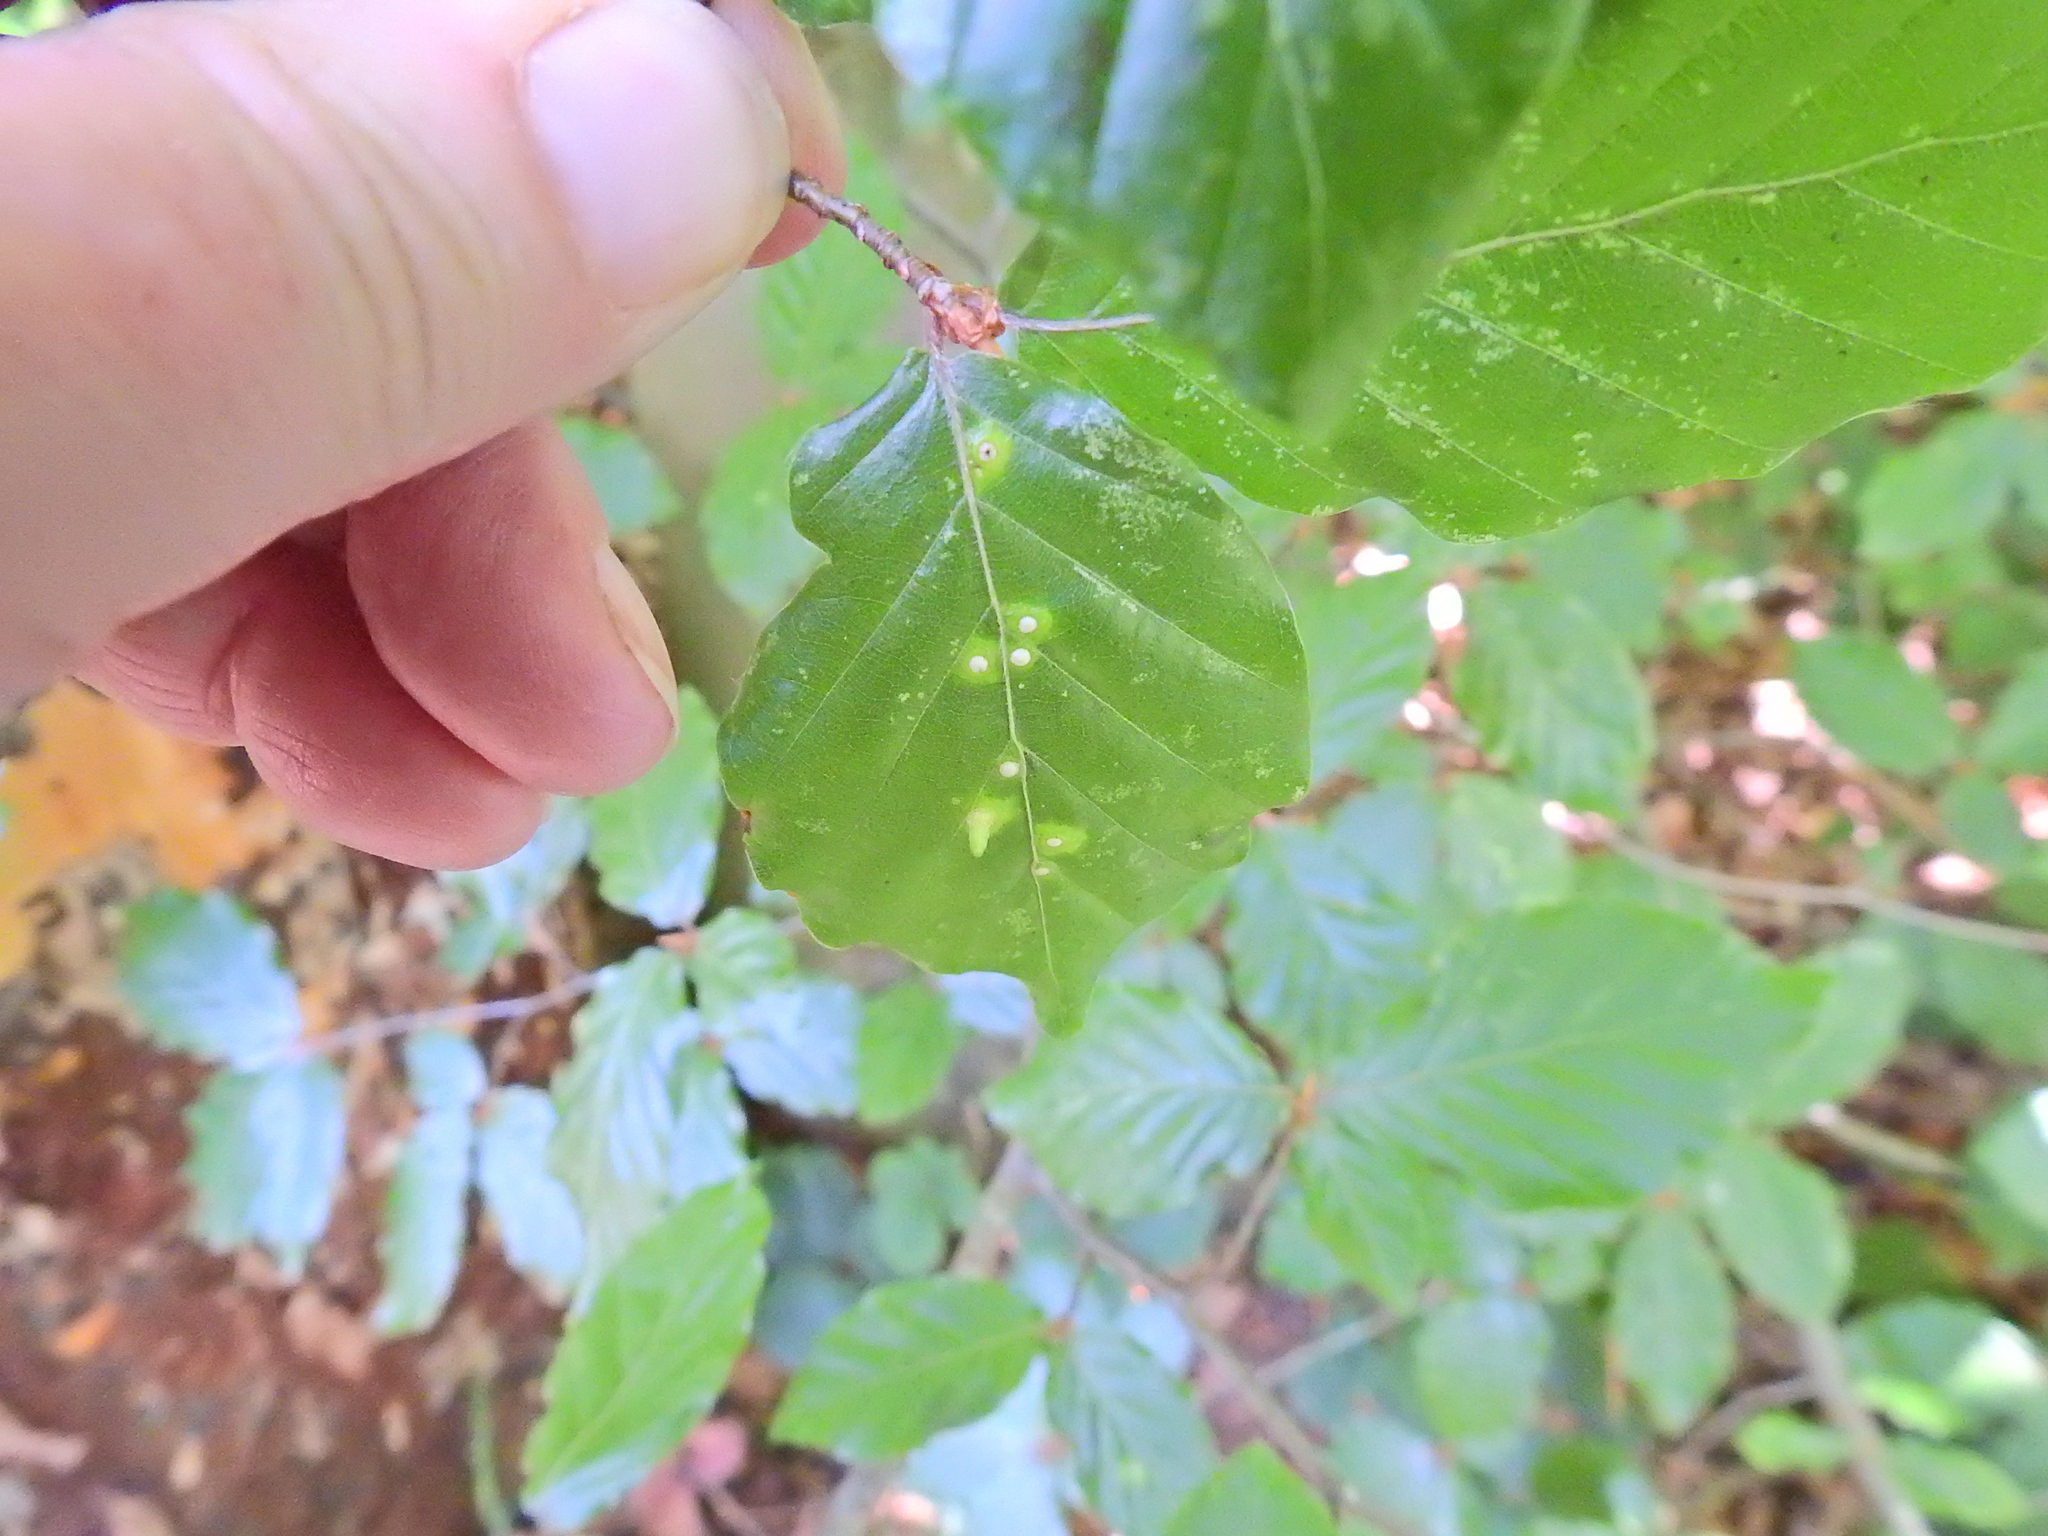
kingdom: Plantae
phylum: Tracheophyta
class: Magnoliopsida
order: Fagales
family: Fagaceae
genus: Fagus
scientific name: Fagus sylvatica
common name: Beech
